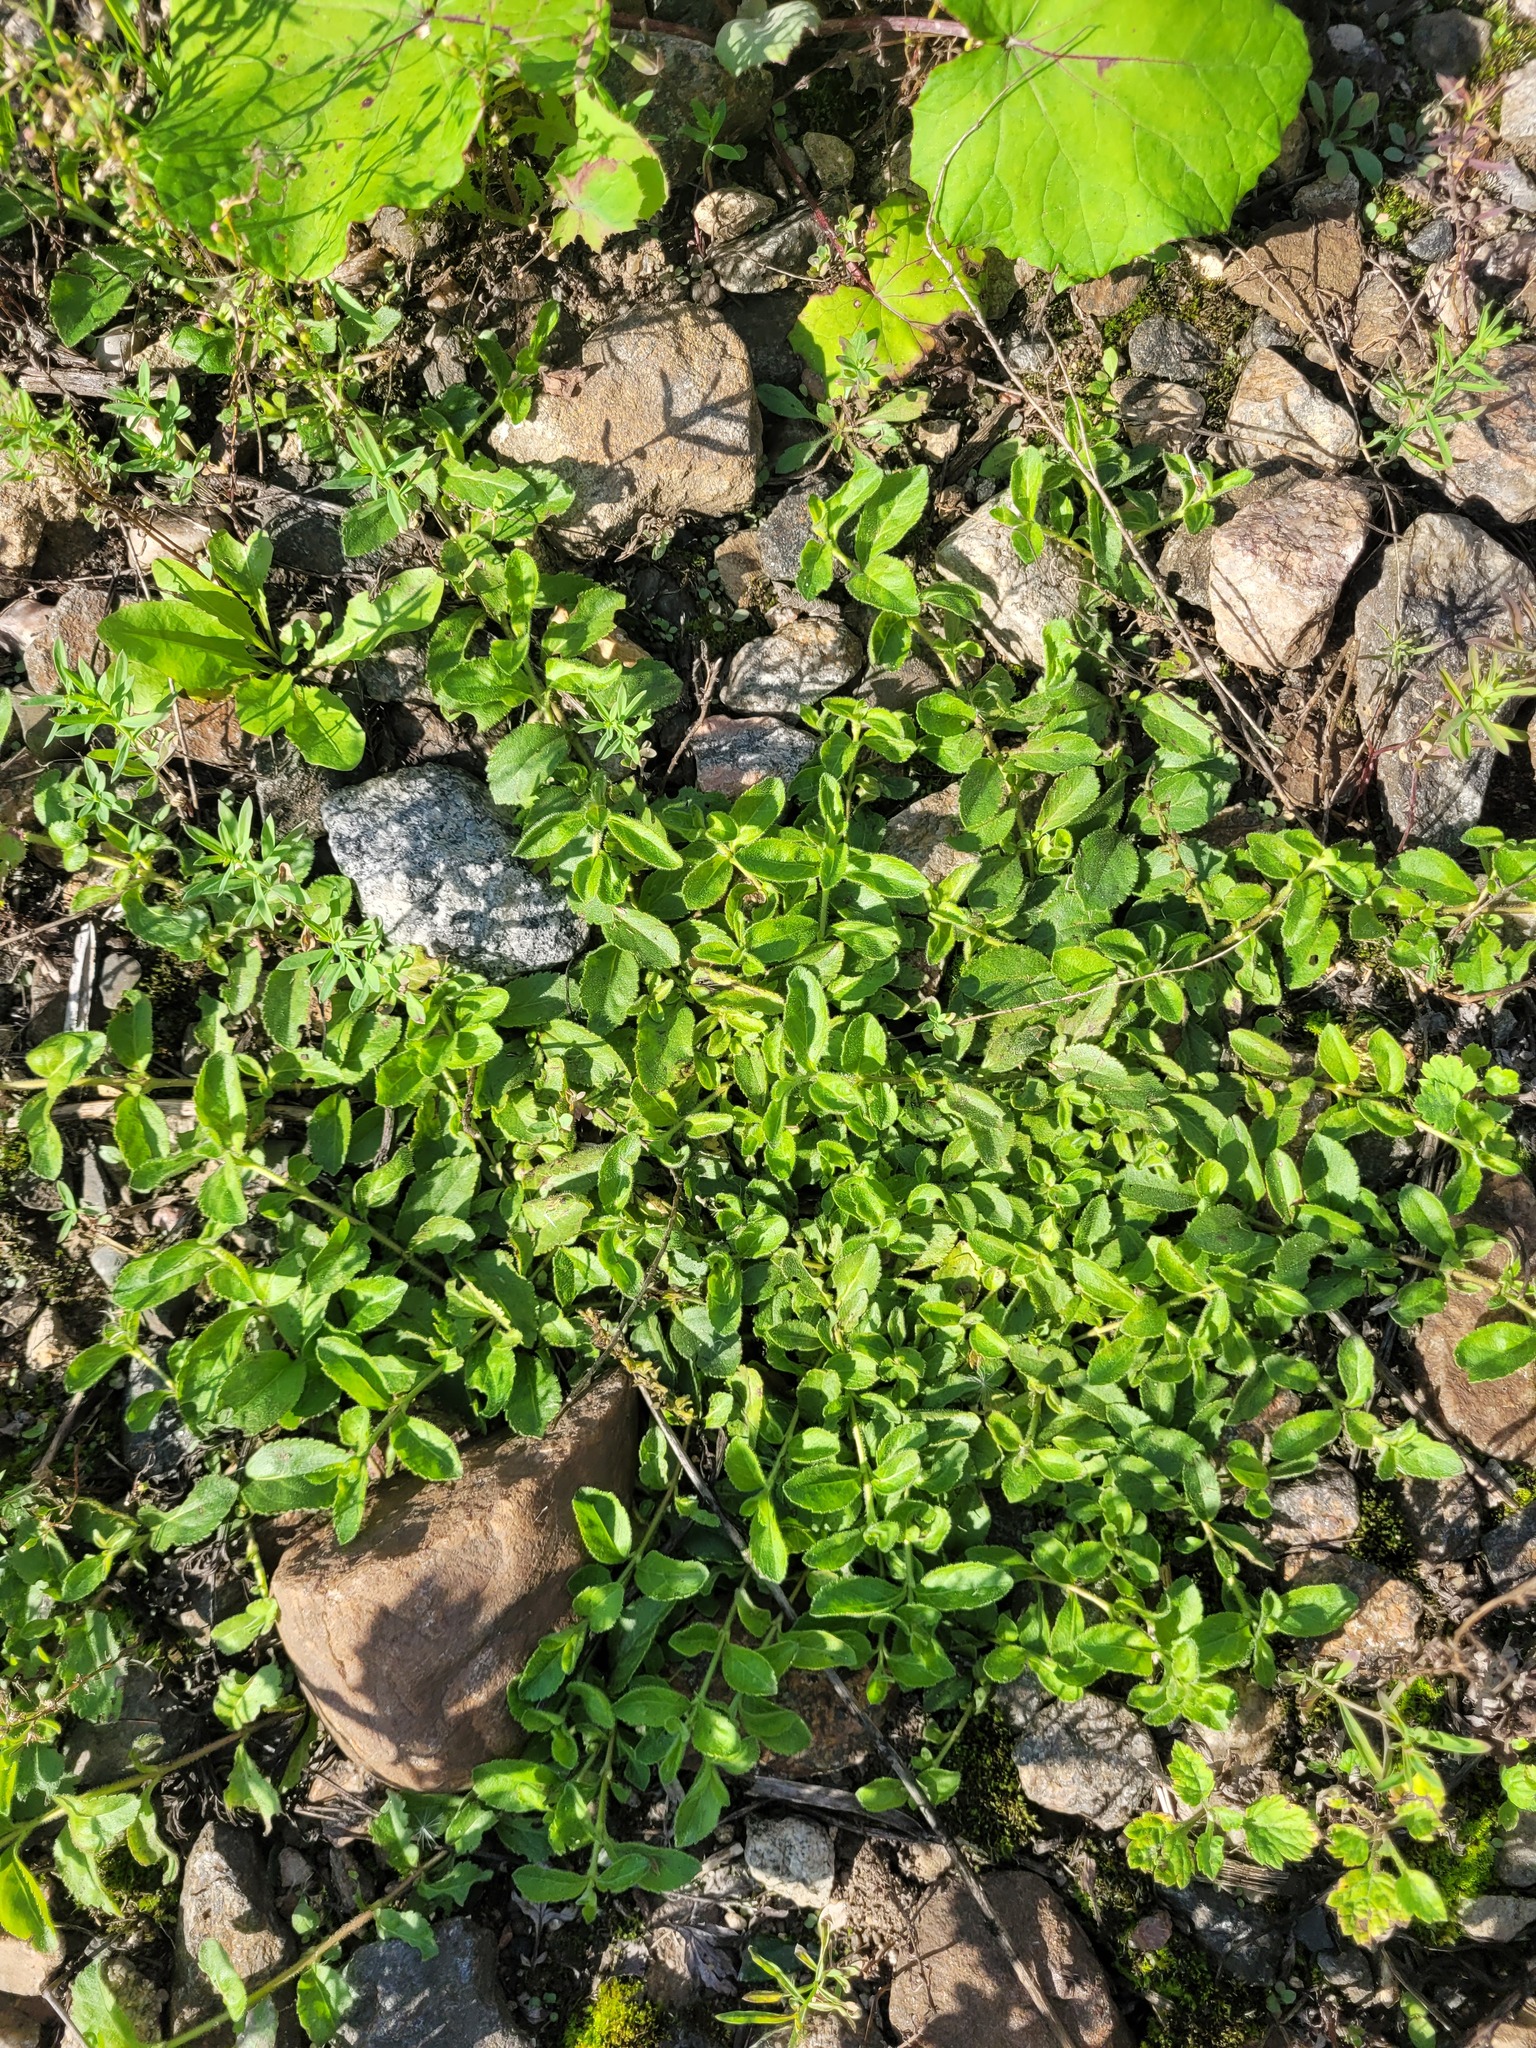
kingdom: Plantae
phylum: Tracheophyta
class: Magnoliopsida
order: Lamiales
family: Plantaginaceae
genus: Veronica
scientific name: Veronica officinalis
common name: Common speedwell
